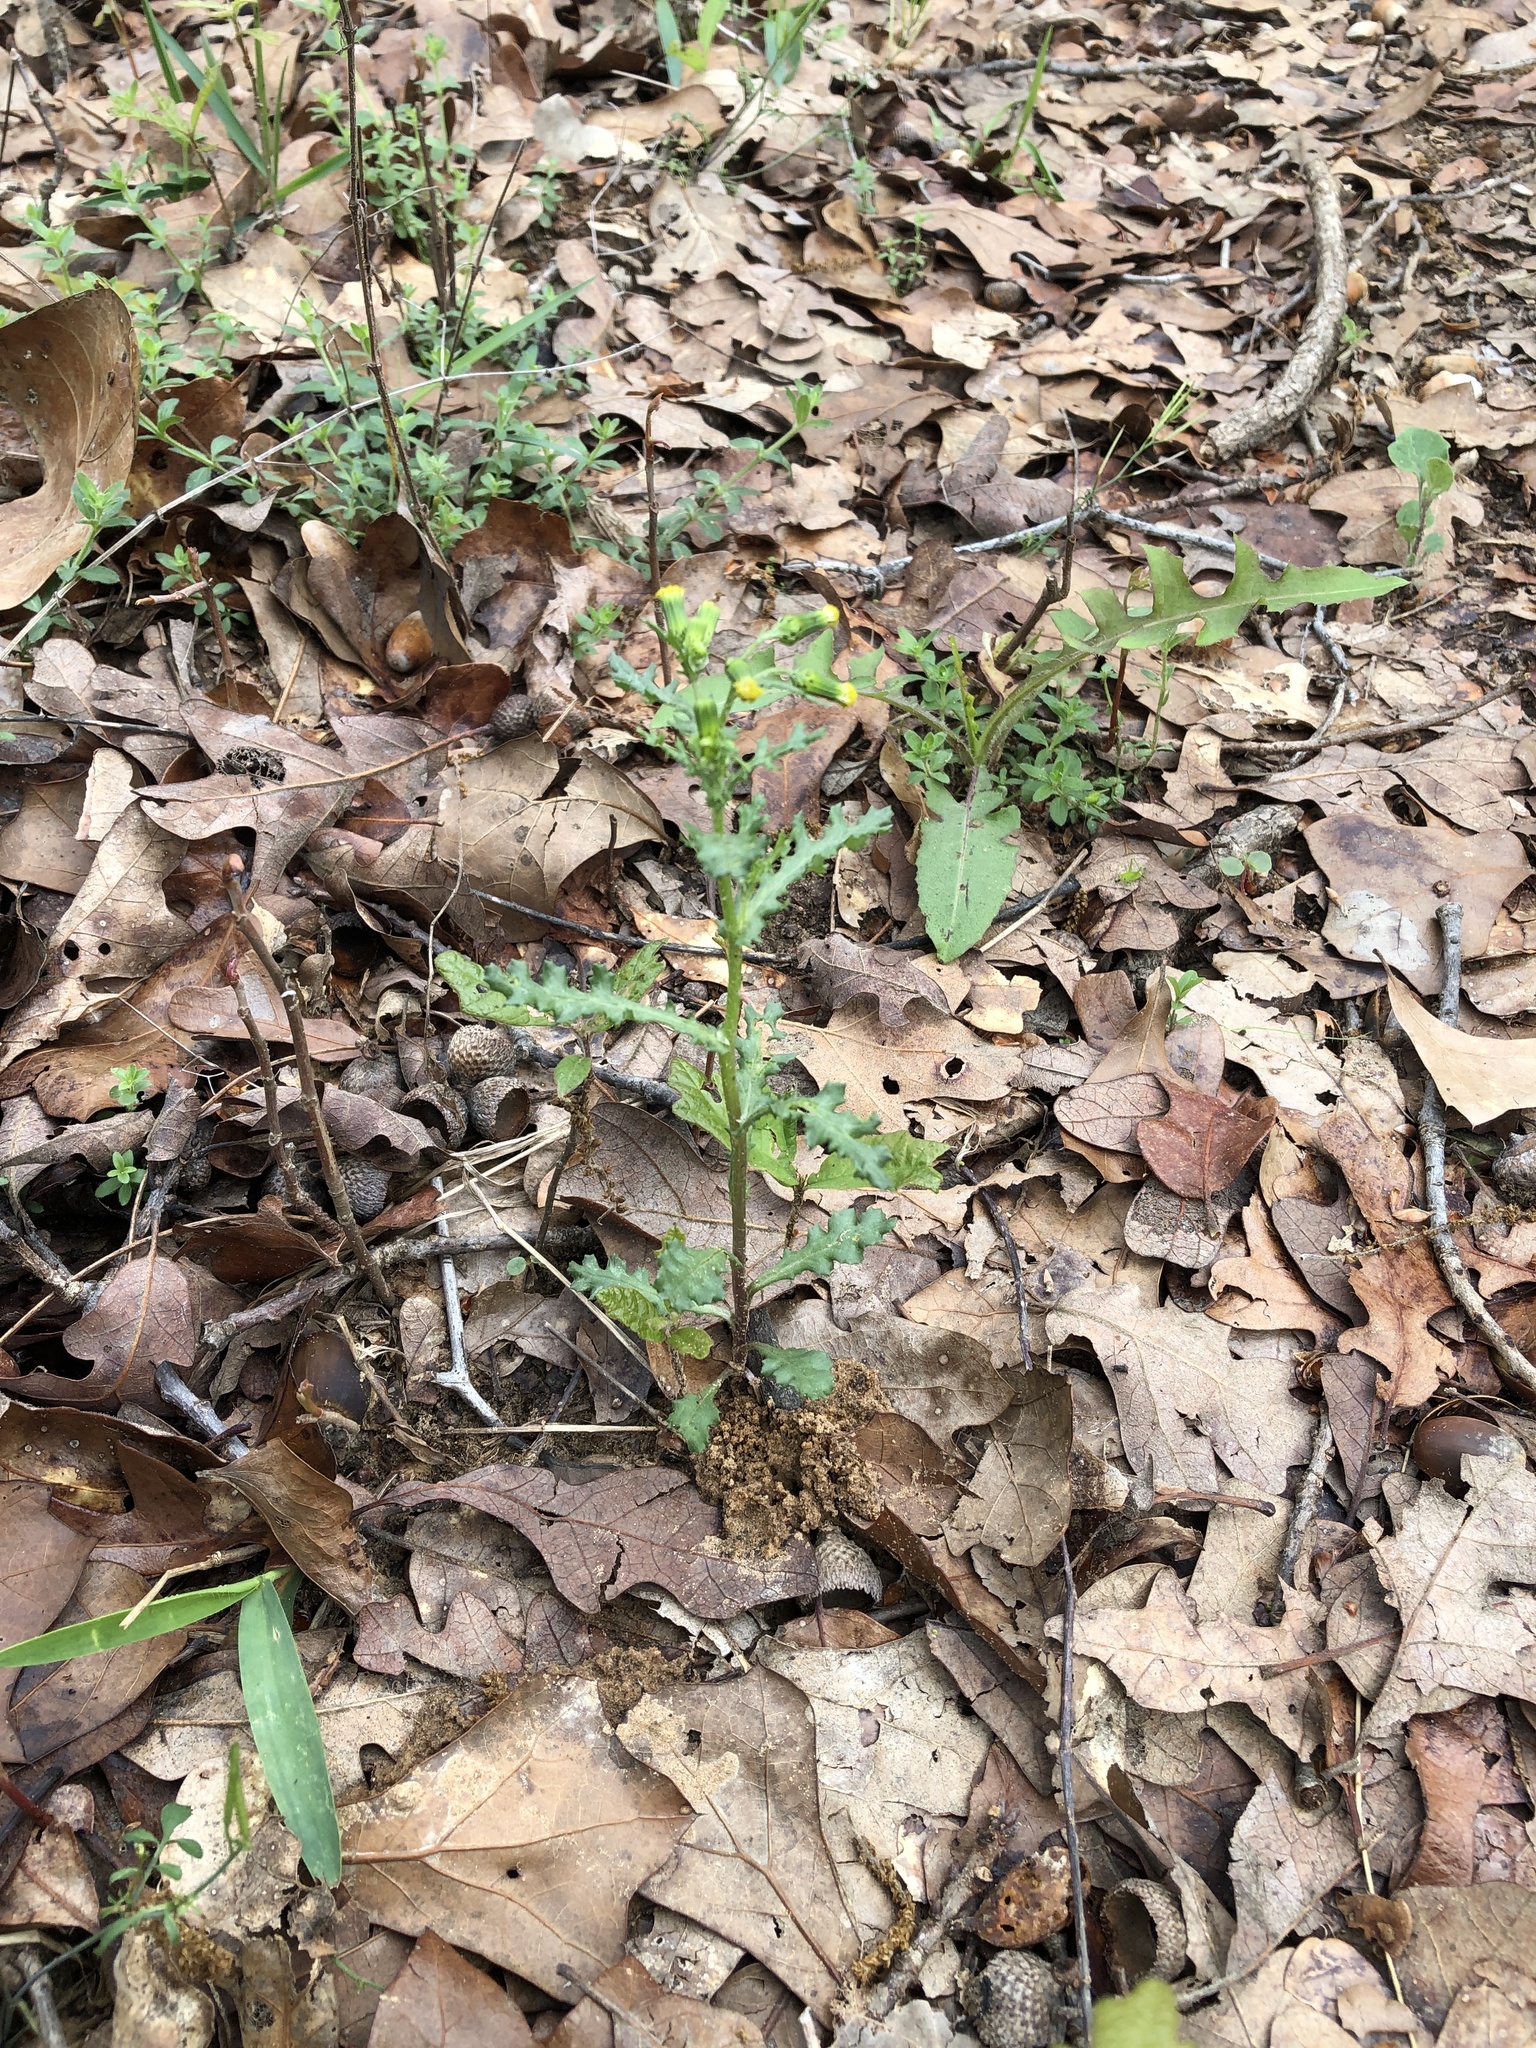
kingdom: Plantae
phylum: Tracheophyta
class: Magnoliopsida
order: Asterales
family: Asteraceae
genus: Senecio
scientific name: Senecio vulgaris
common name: Old-man-in-the-spring
